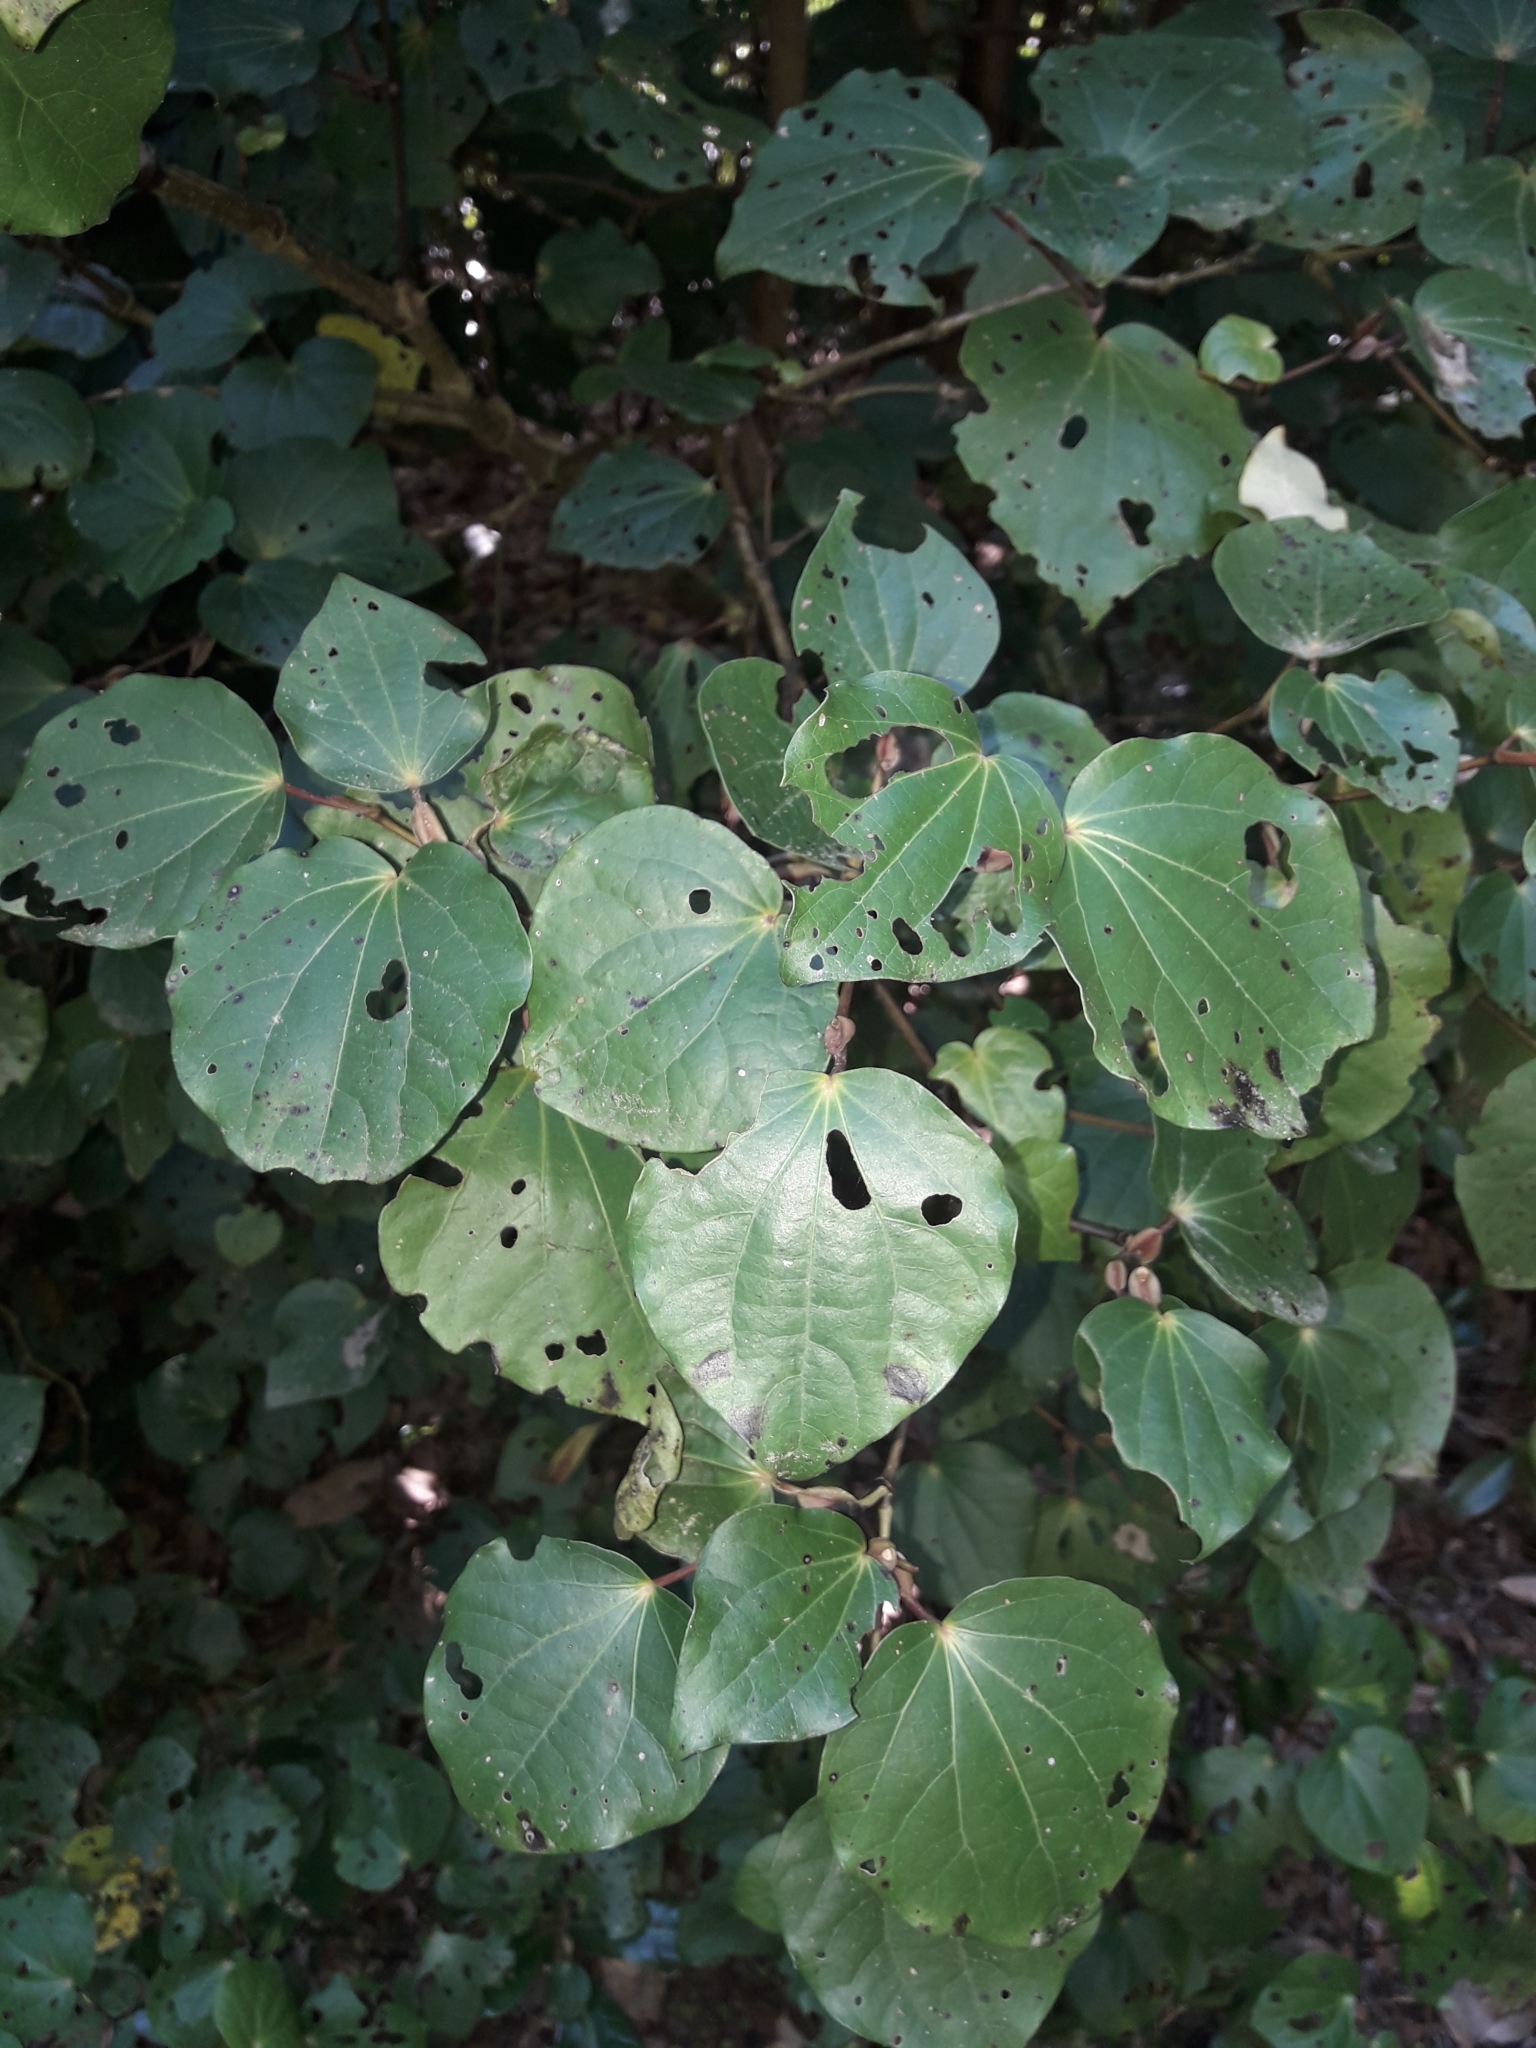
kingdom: Plantae
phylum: Tracheophyta
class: Magnoliopsida
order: Piperales
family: Piperaceae
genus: Macropiper
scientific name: Macropiper excelsum
